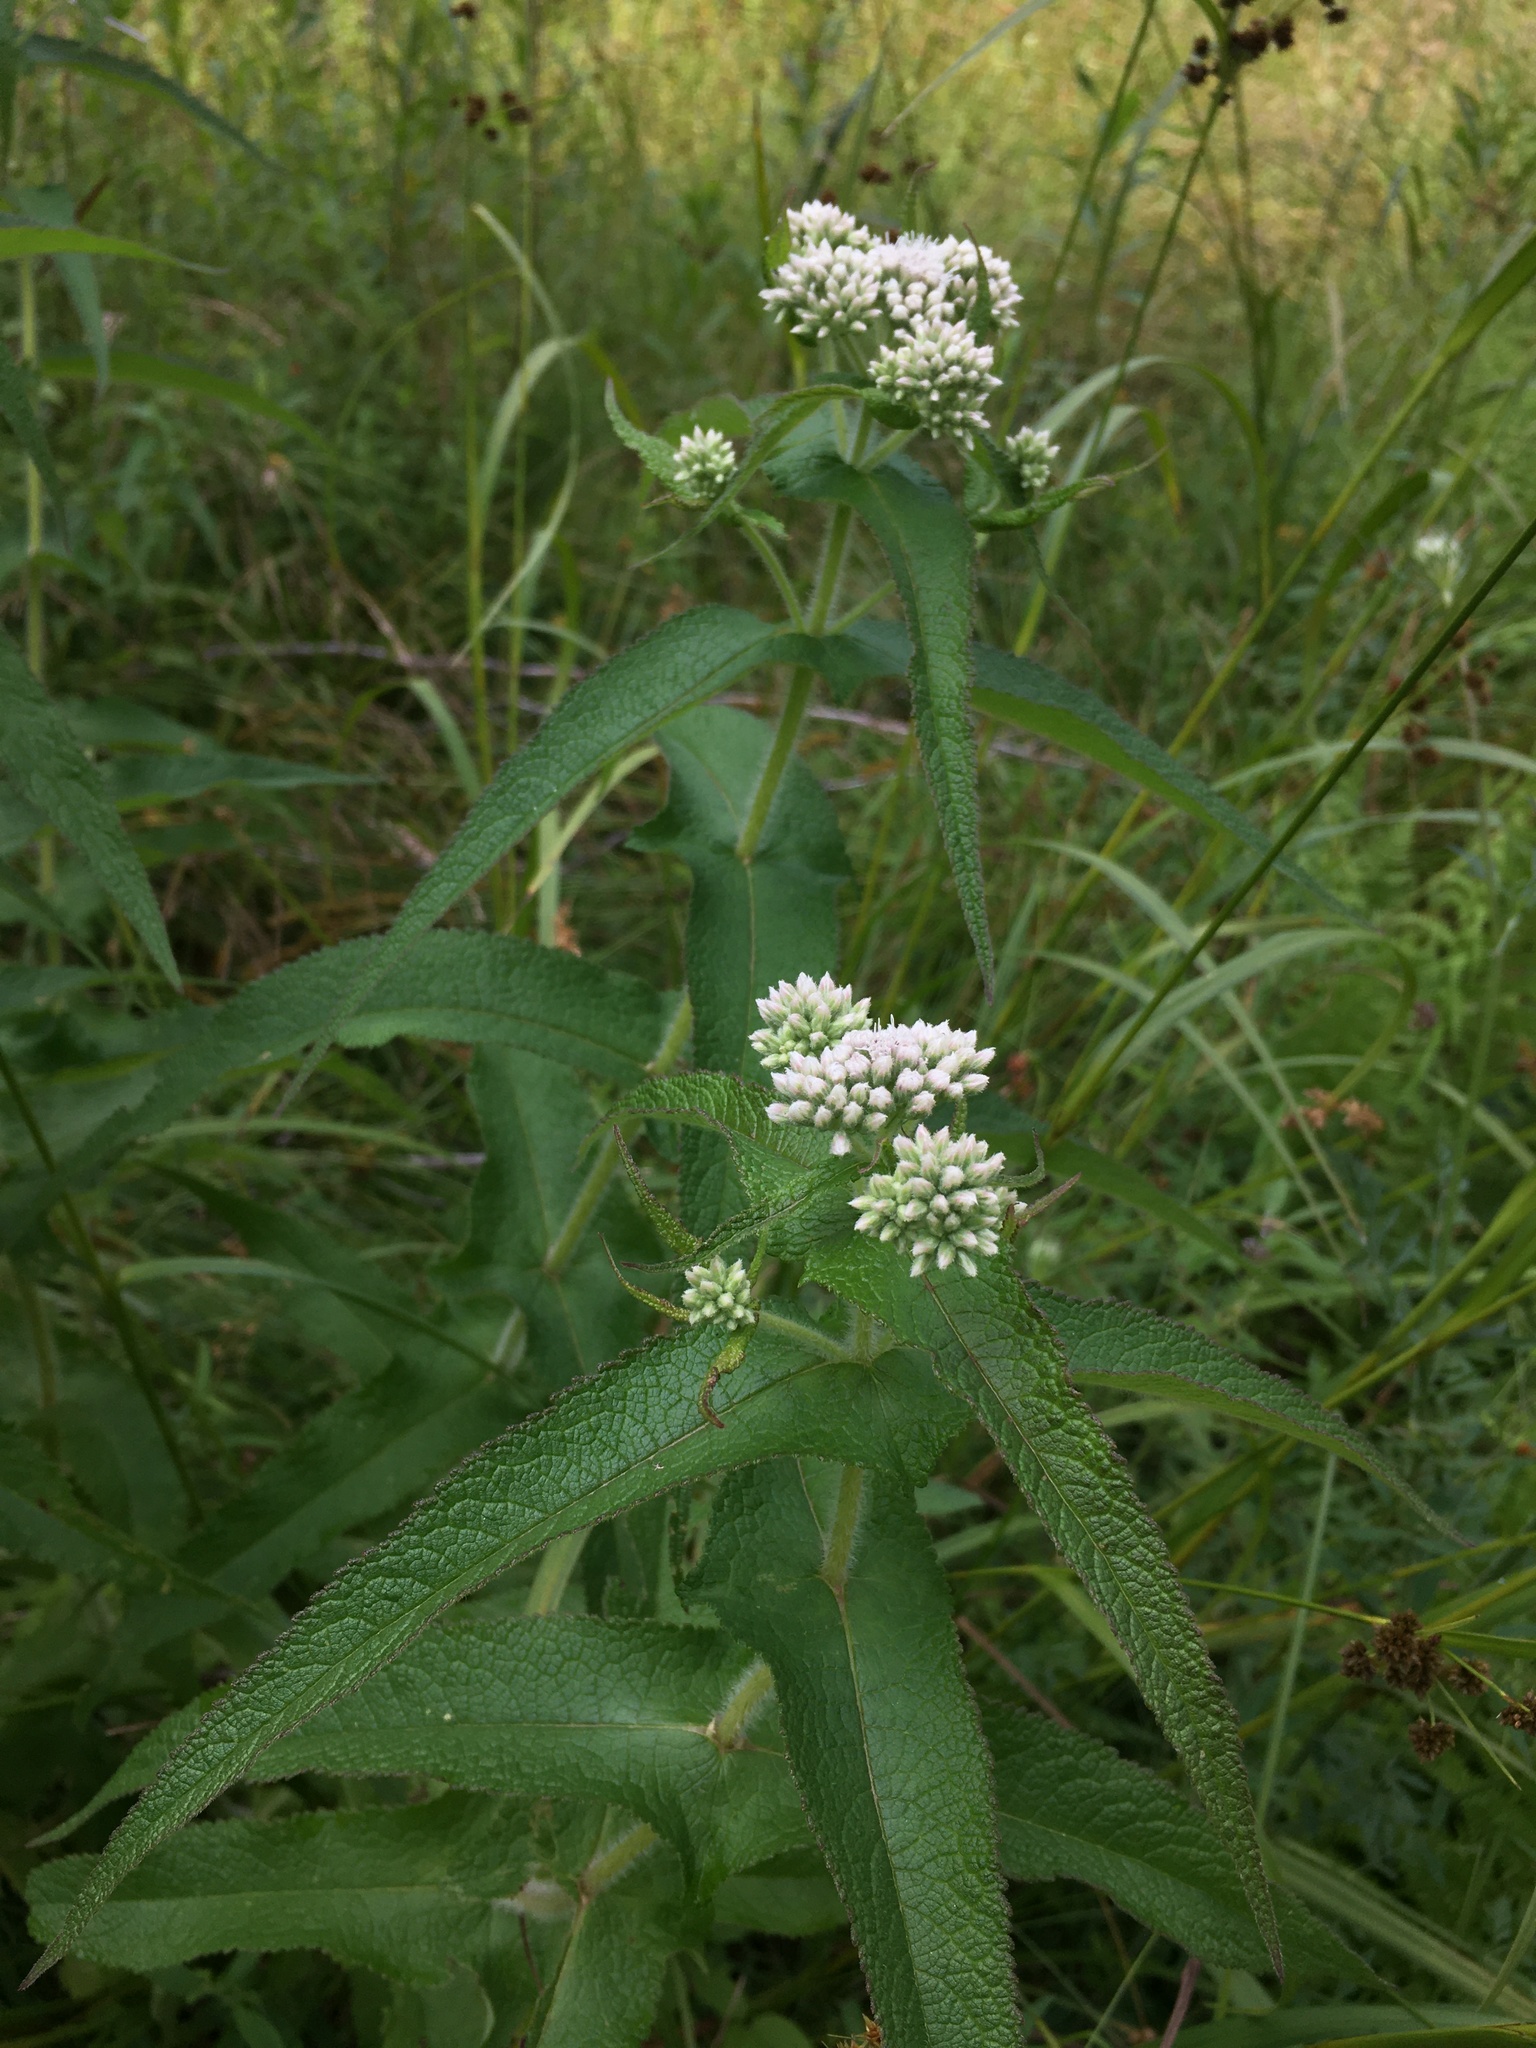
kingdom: Plantae
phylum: Tracheophyta
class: Magnoliopsida
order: Asterales
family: Asteraceae
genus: Eupatorium
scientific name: Eupatorium perfoliatum
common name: Boneset
